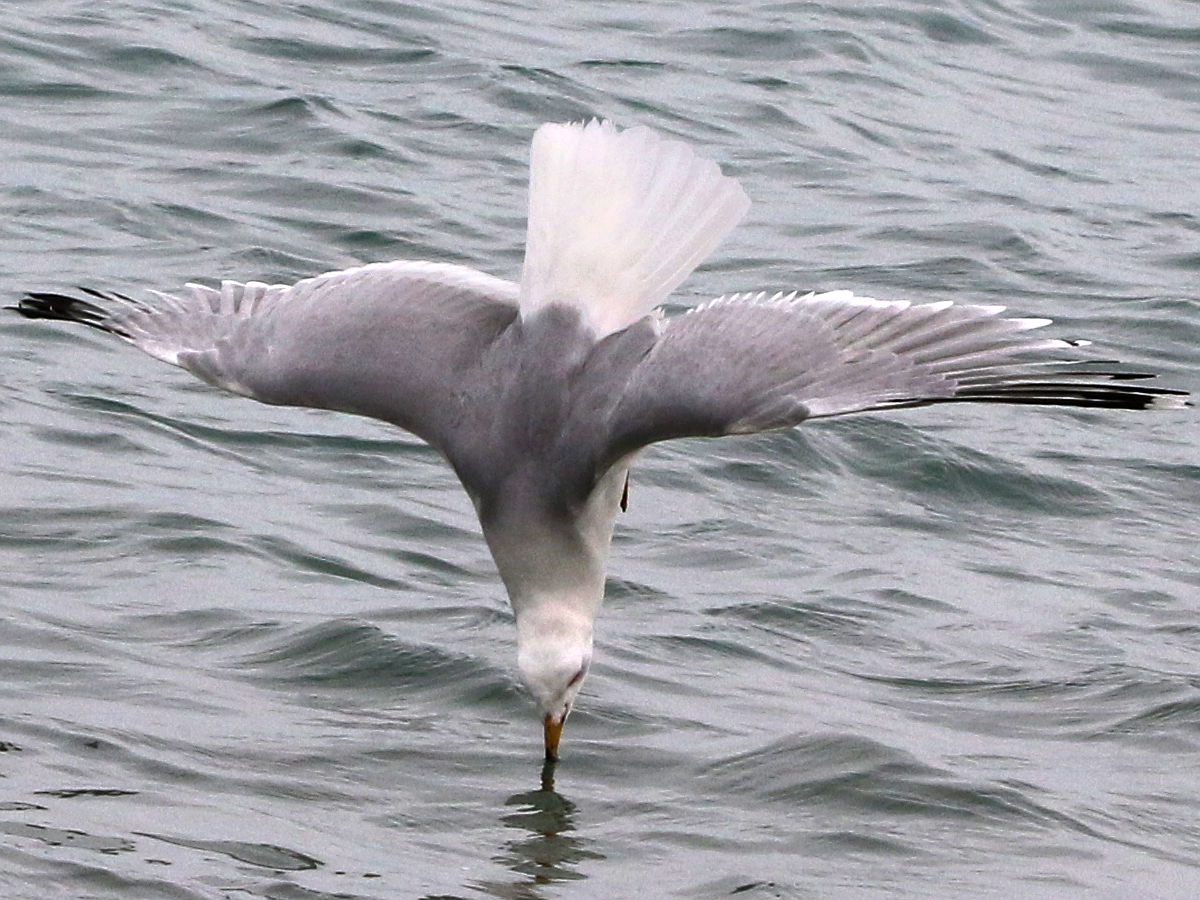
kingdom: Animalia
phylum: Chordata
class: Aves
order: Charadriiformes
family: Laridae
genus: Larus
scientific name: Larus delawarensis
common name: Ring-billed gull
